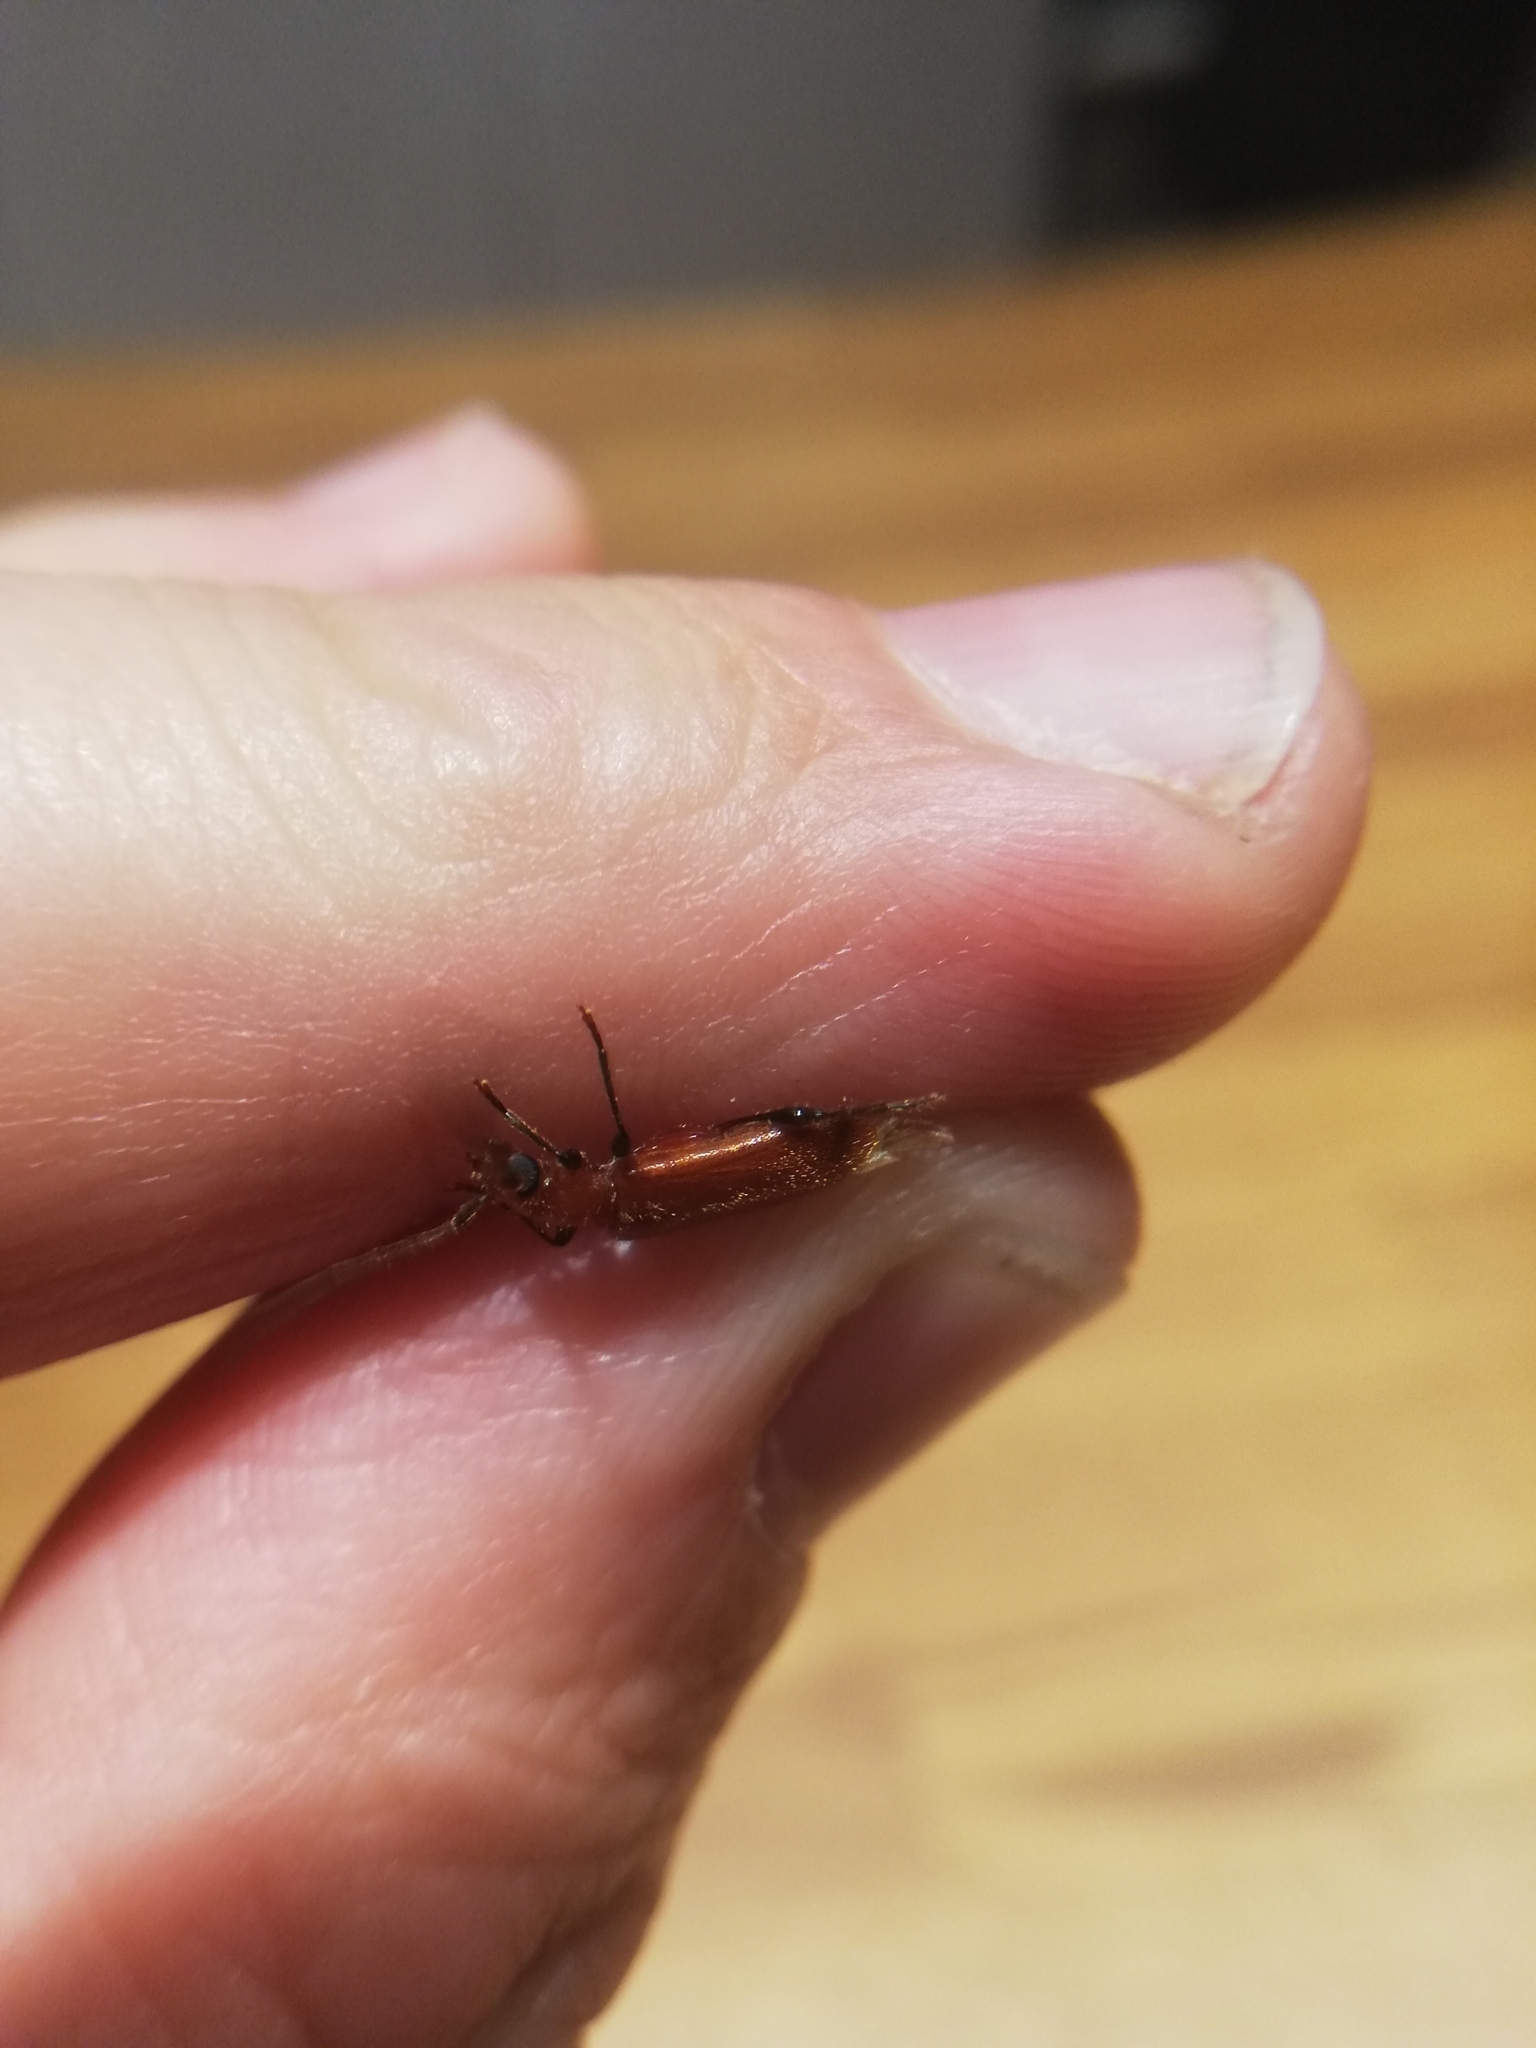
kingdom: Animalia
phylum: Arthropoda
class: Insecta
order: Coleoptera
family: Cerambycidae
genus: Obrium
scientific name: Obrium cantharinum
